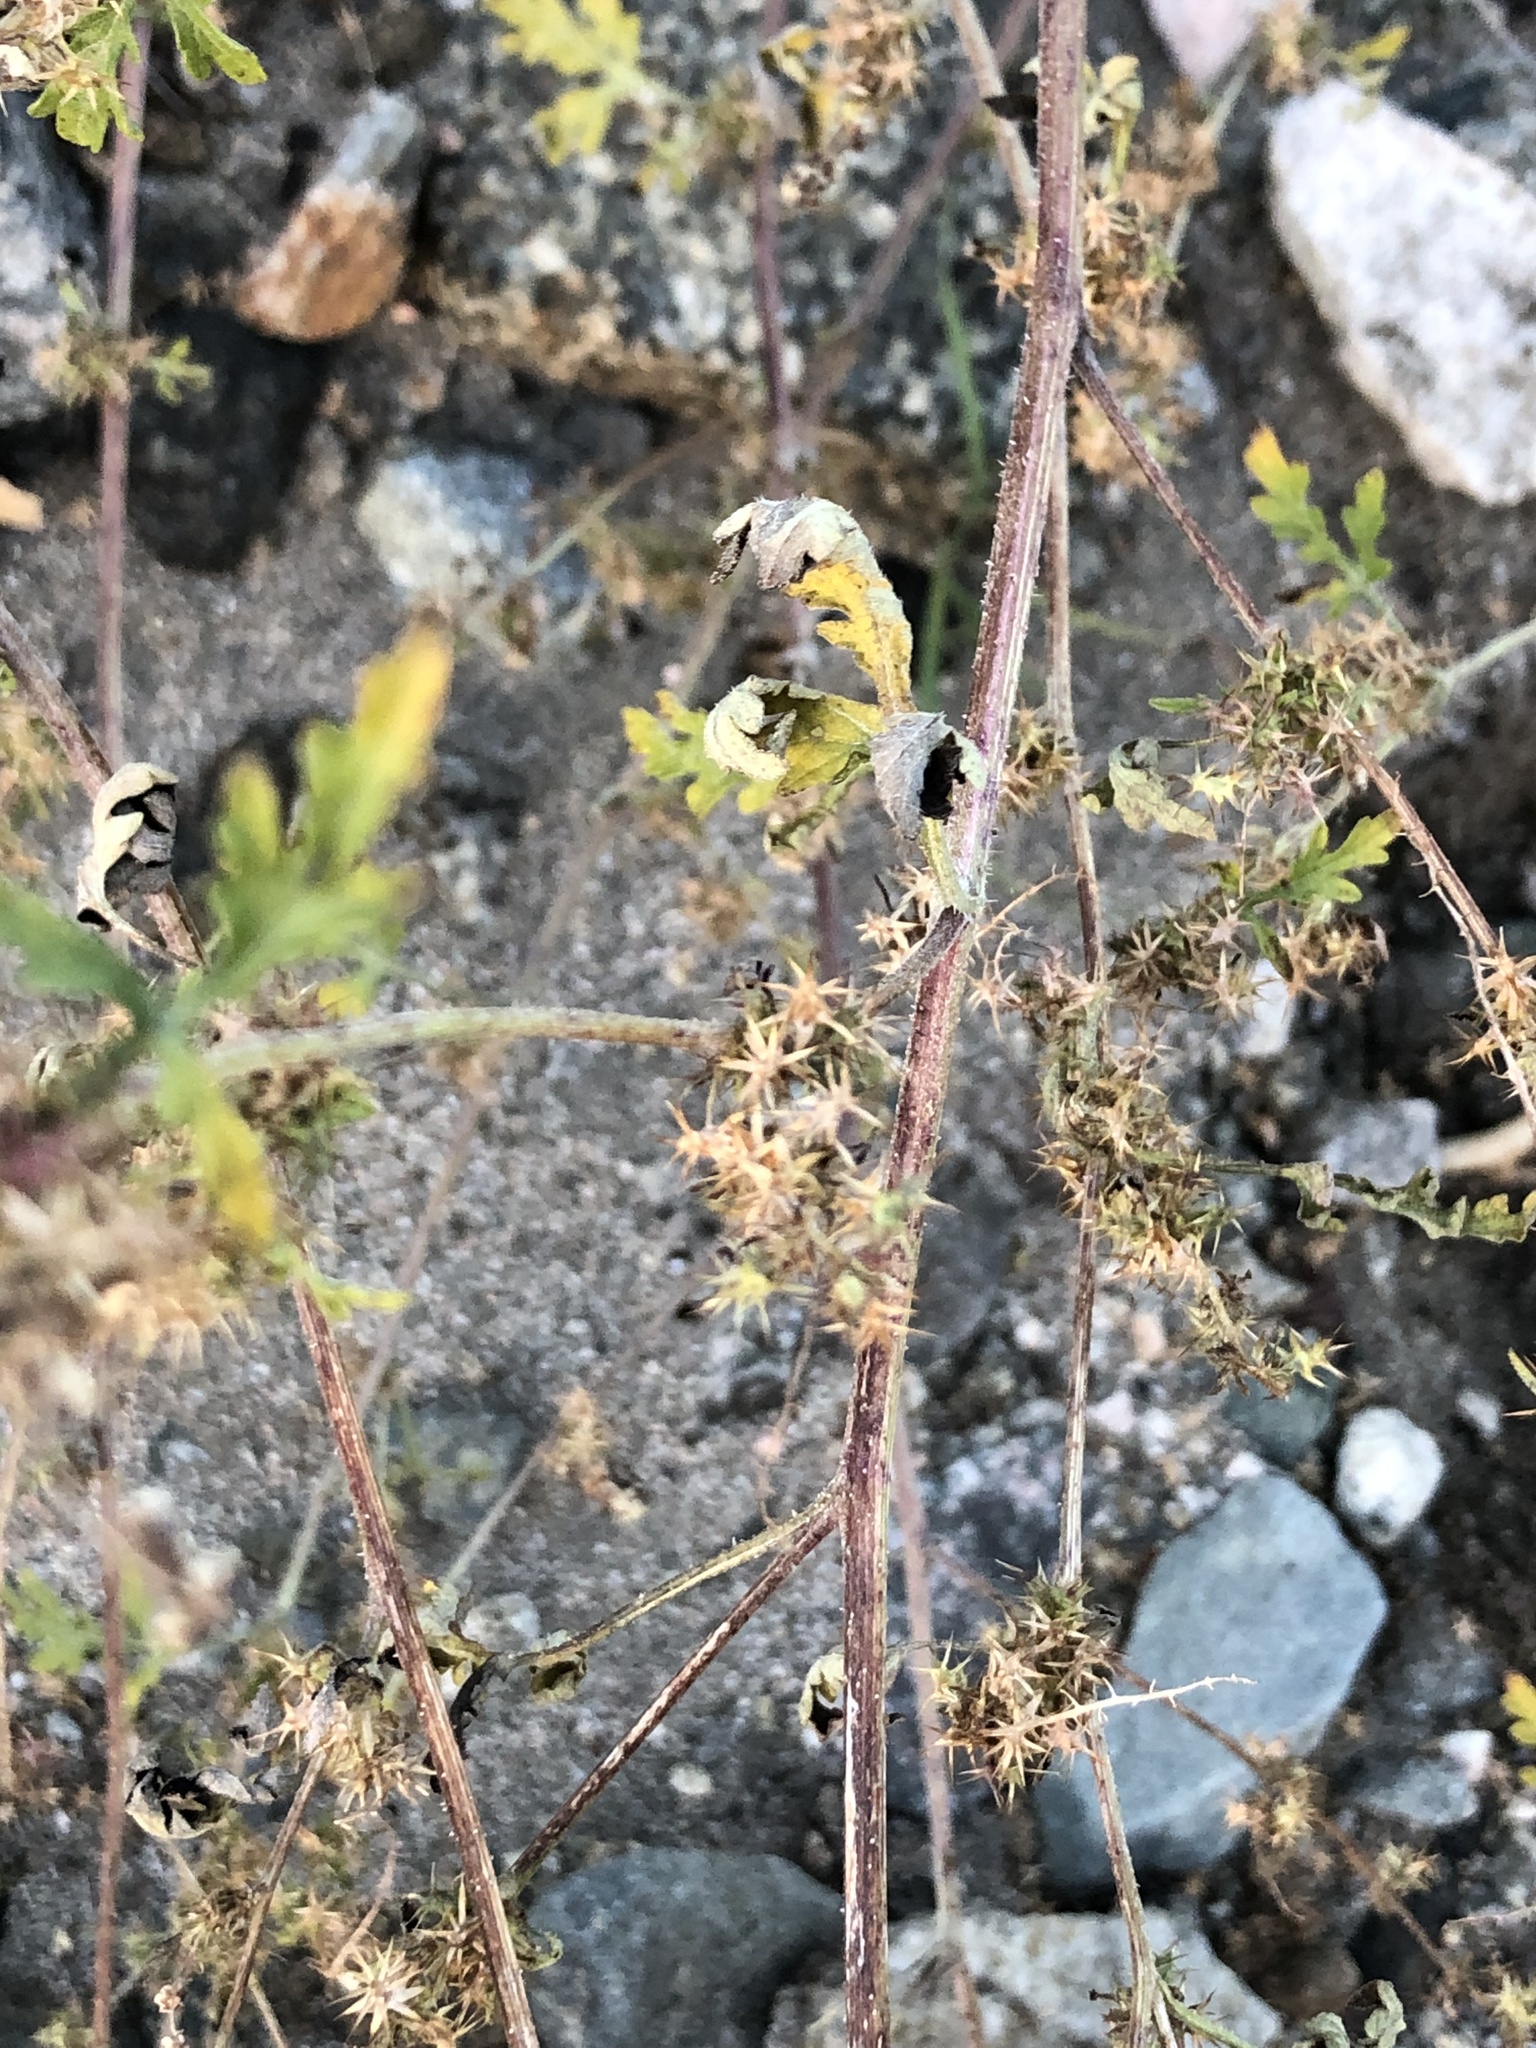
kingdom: Plantae
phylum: Tracheophyta
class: Magnoliopsida
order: Asterales
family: Asteraceae
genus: Ambrosia
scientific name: Ambrosia acanthicarpa
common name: Hooker's bur ragweed
